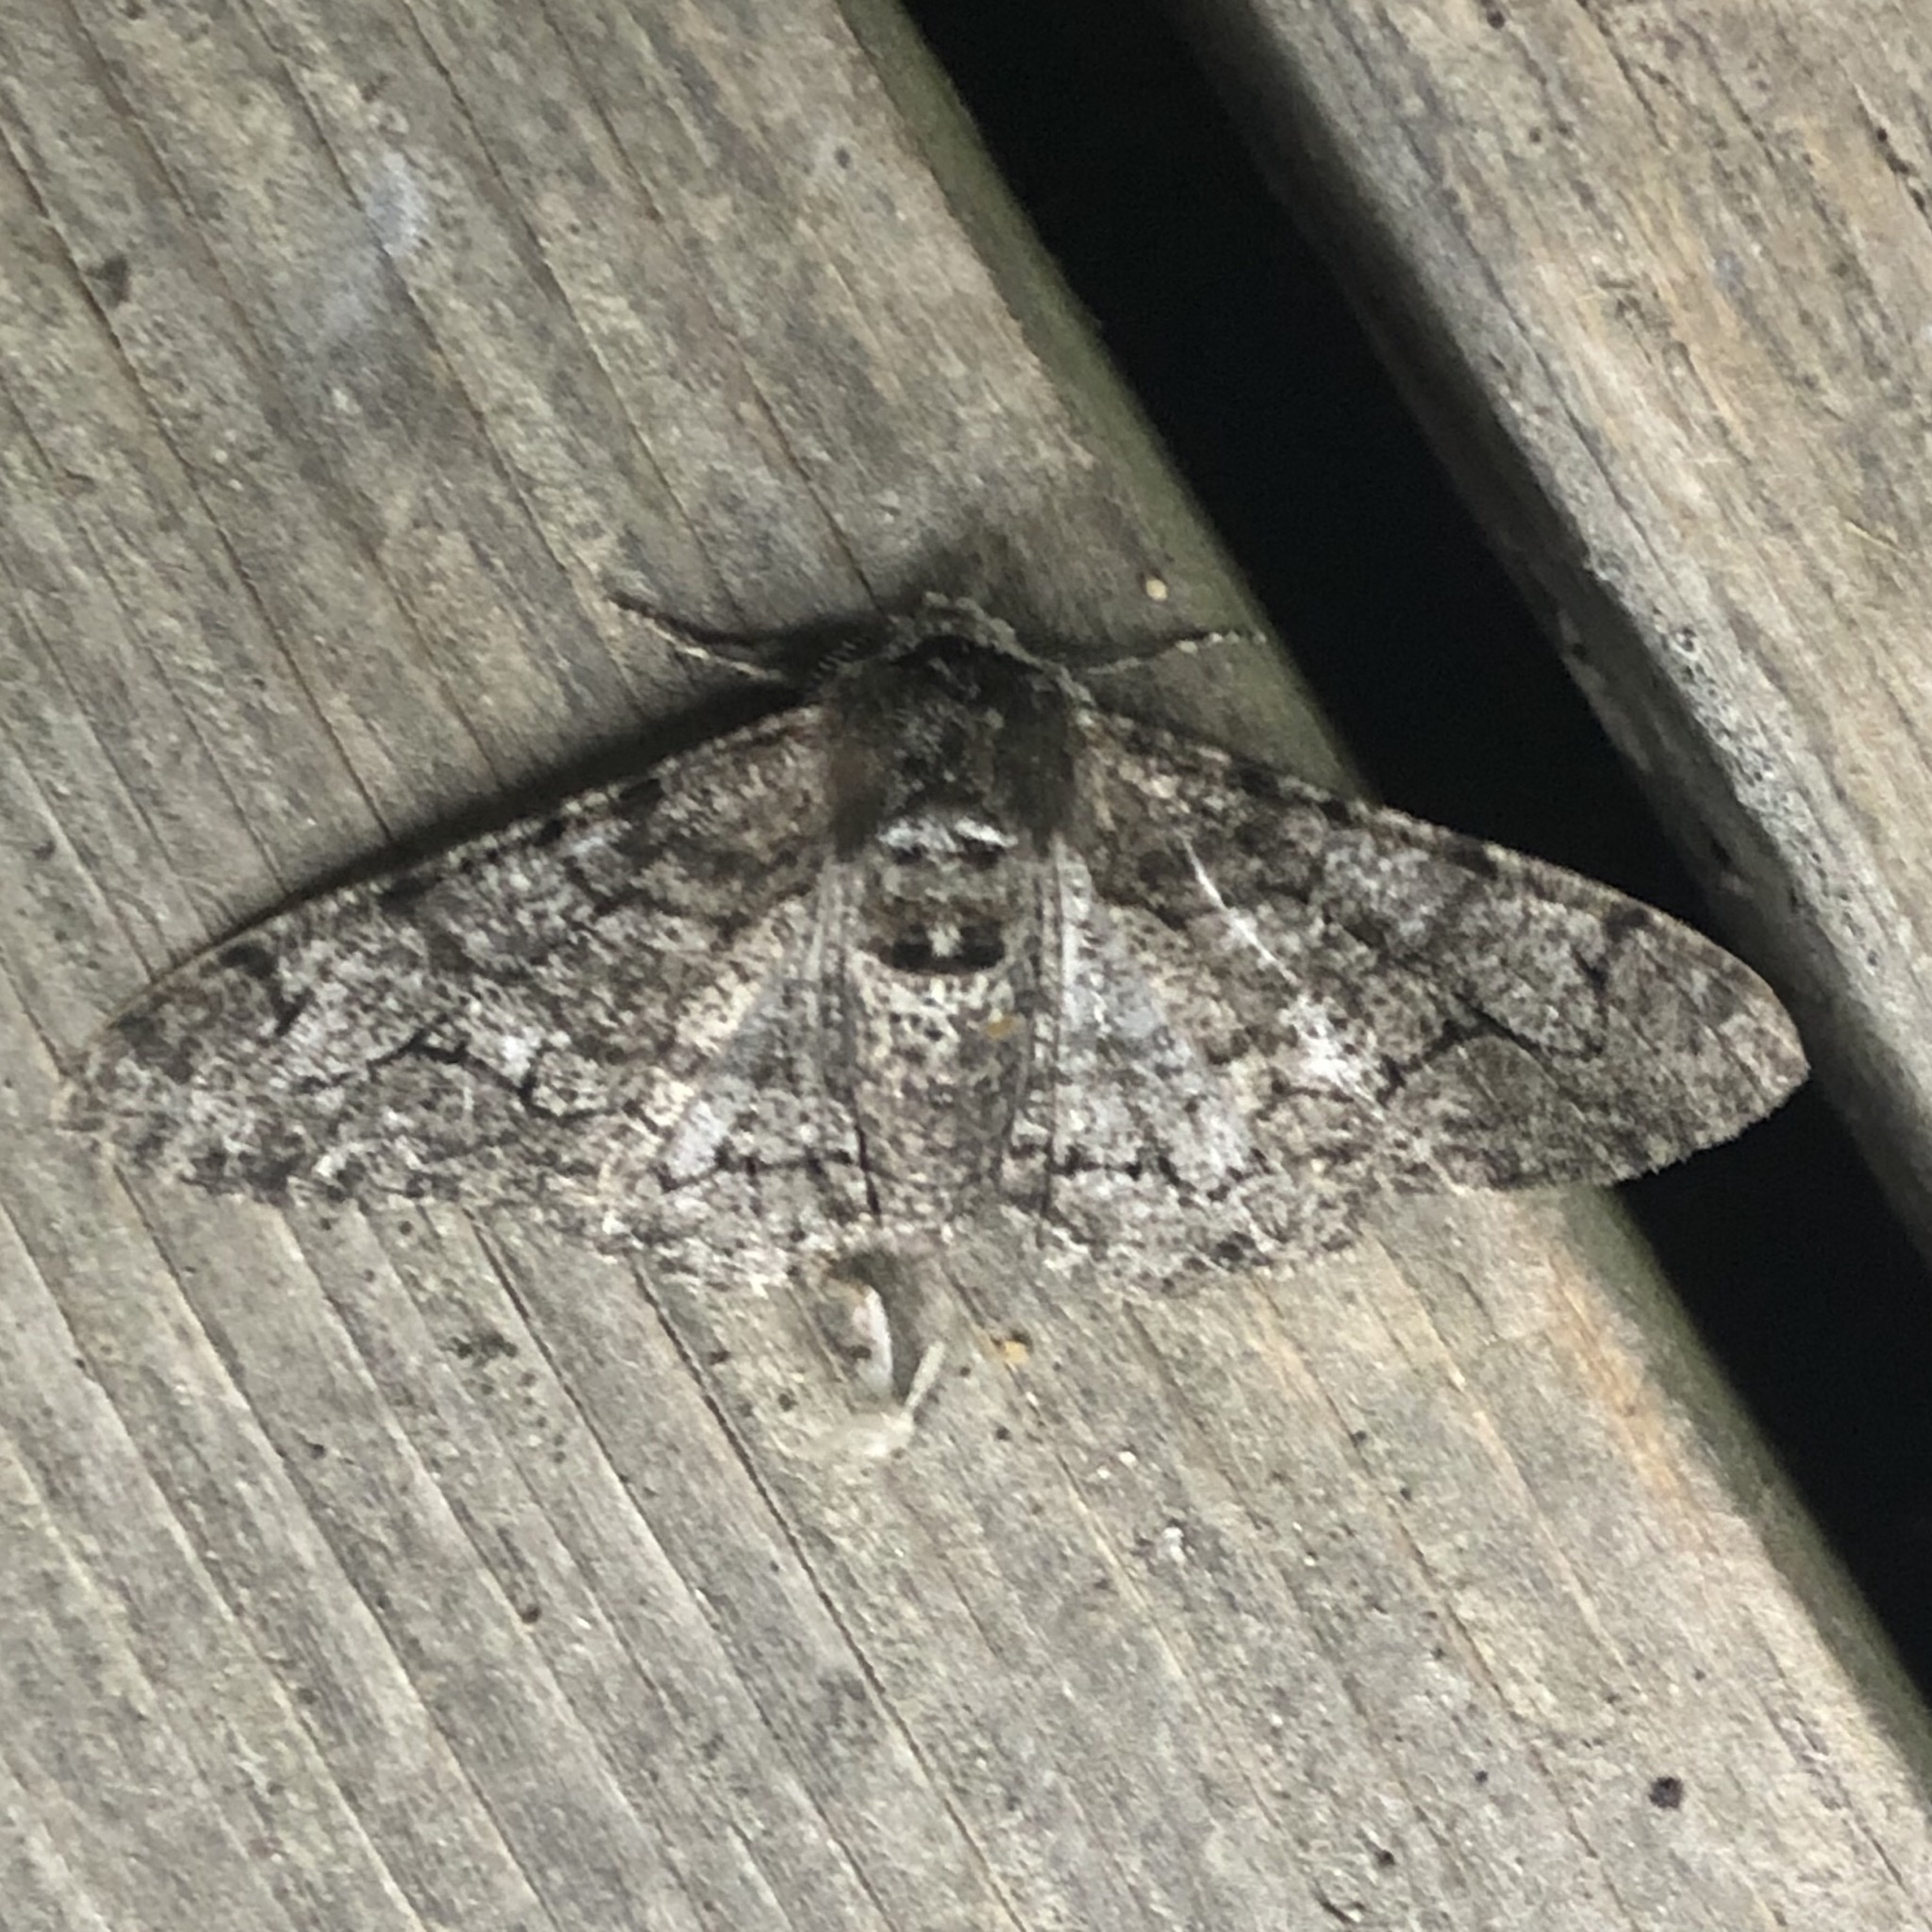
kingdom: Animalia
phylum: Arthropoda
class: Insecta
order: Lepidoptera
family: Geometridae
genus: Biston
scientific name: Biston betularia
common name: Peppered moth
